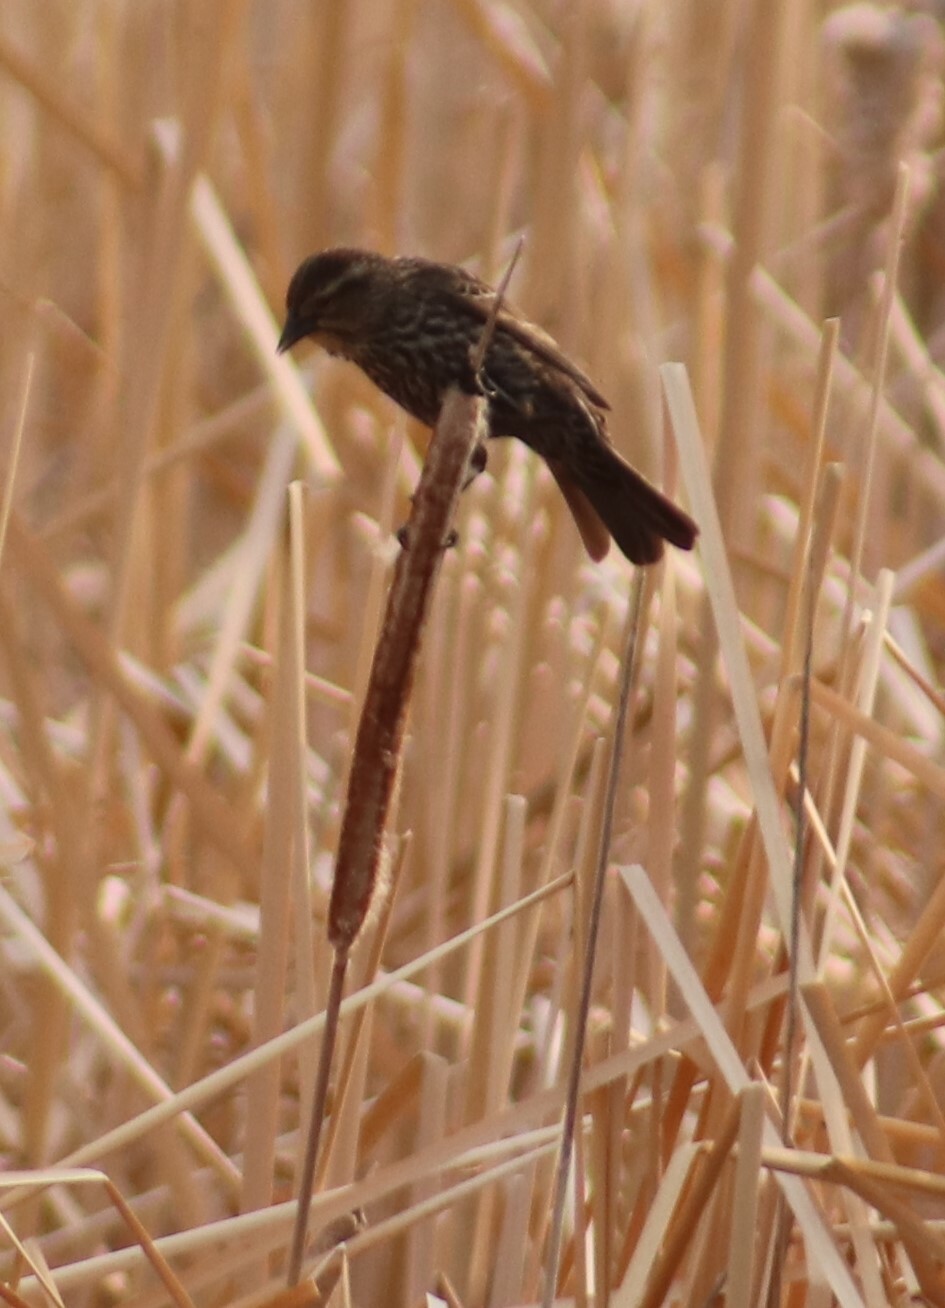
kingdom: Animalia
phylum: Chordata
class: Aves
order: Passeriformes
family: Icteridae
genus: Agelaius
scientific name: Agelaius phoeniceus
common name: Red-winged blackbird
